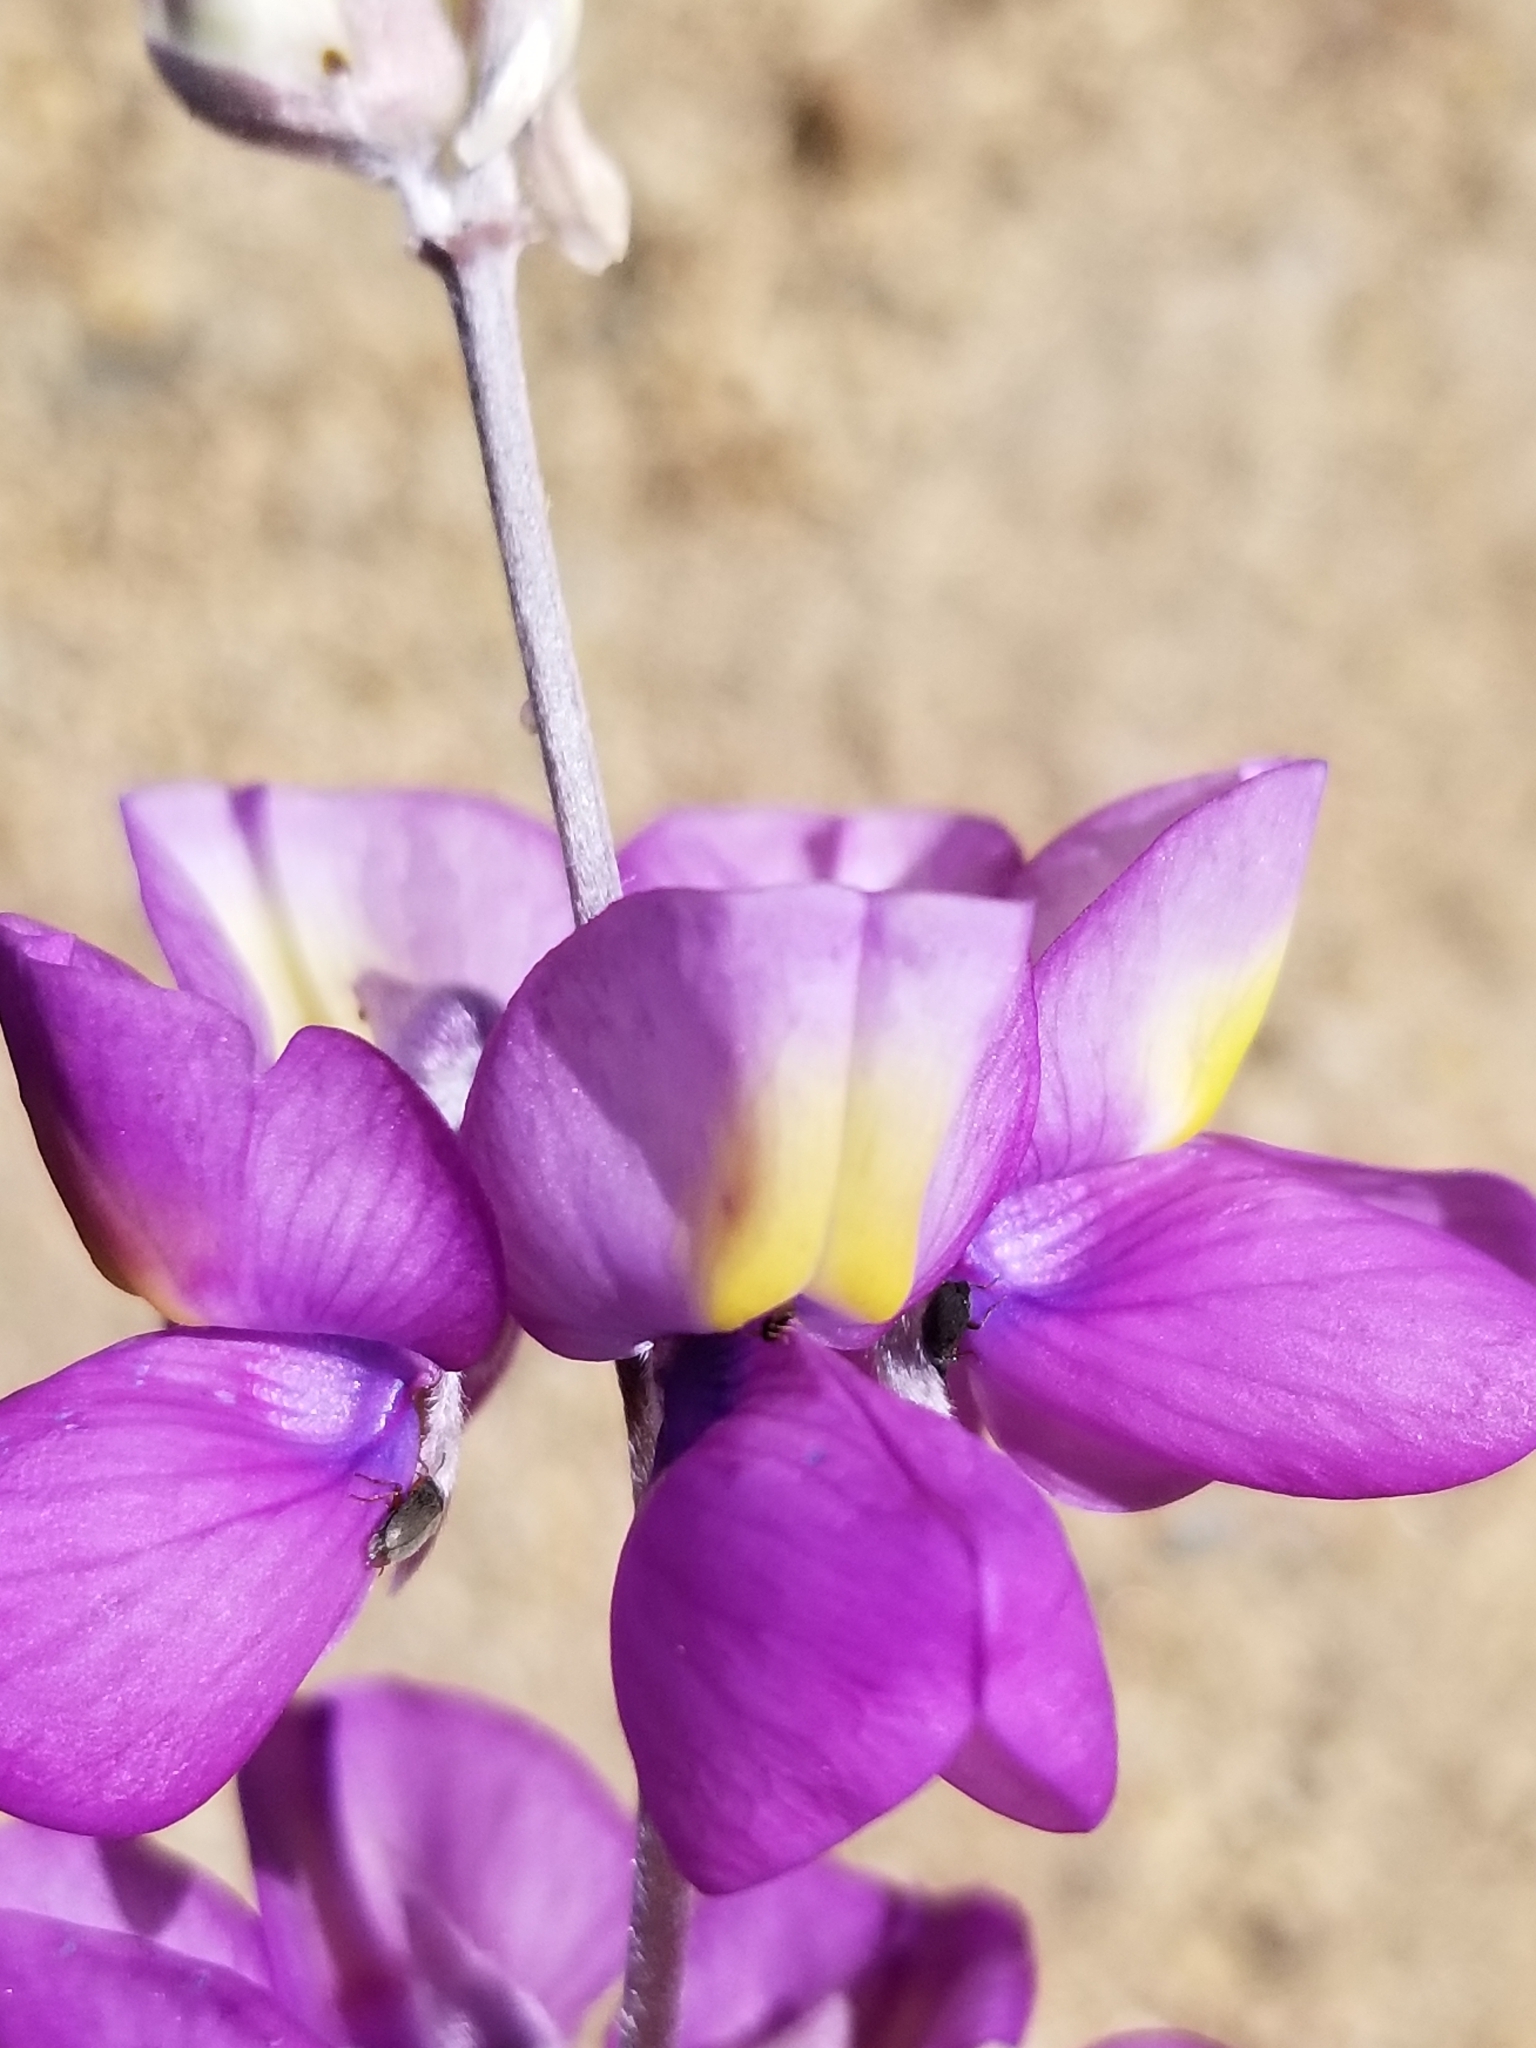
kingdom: Plantae
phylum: Tracheophyta
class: Magnoliopsida
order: Fabales
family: Fabaceae
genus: Lupinus
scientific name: Lupinus excubitus
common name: Grape soda lupine
